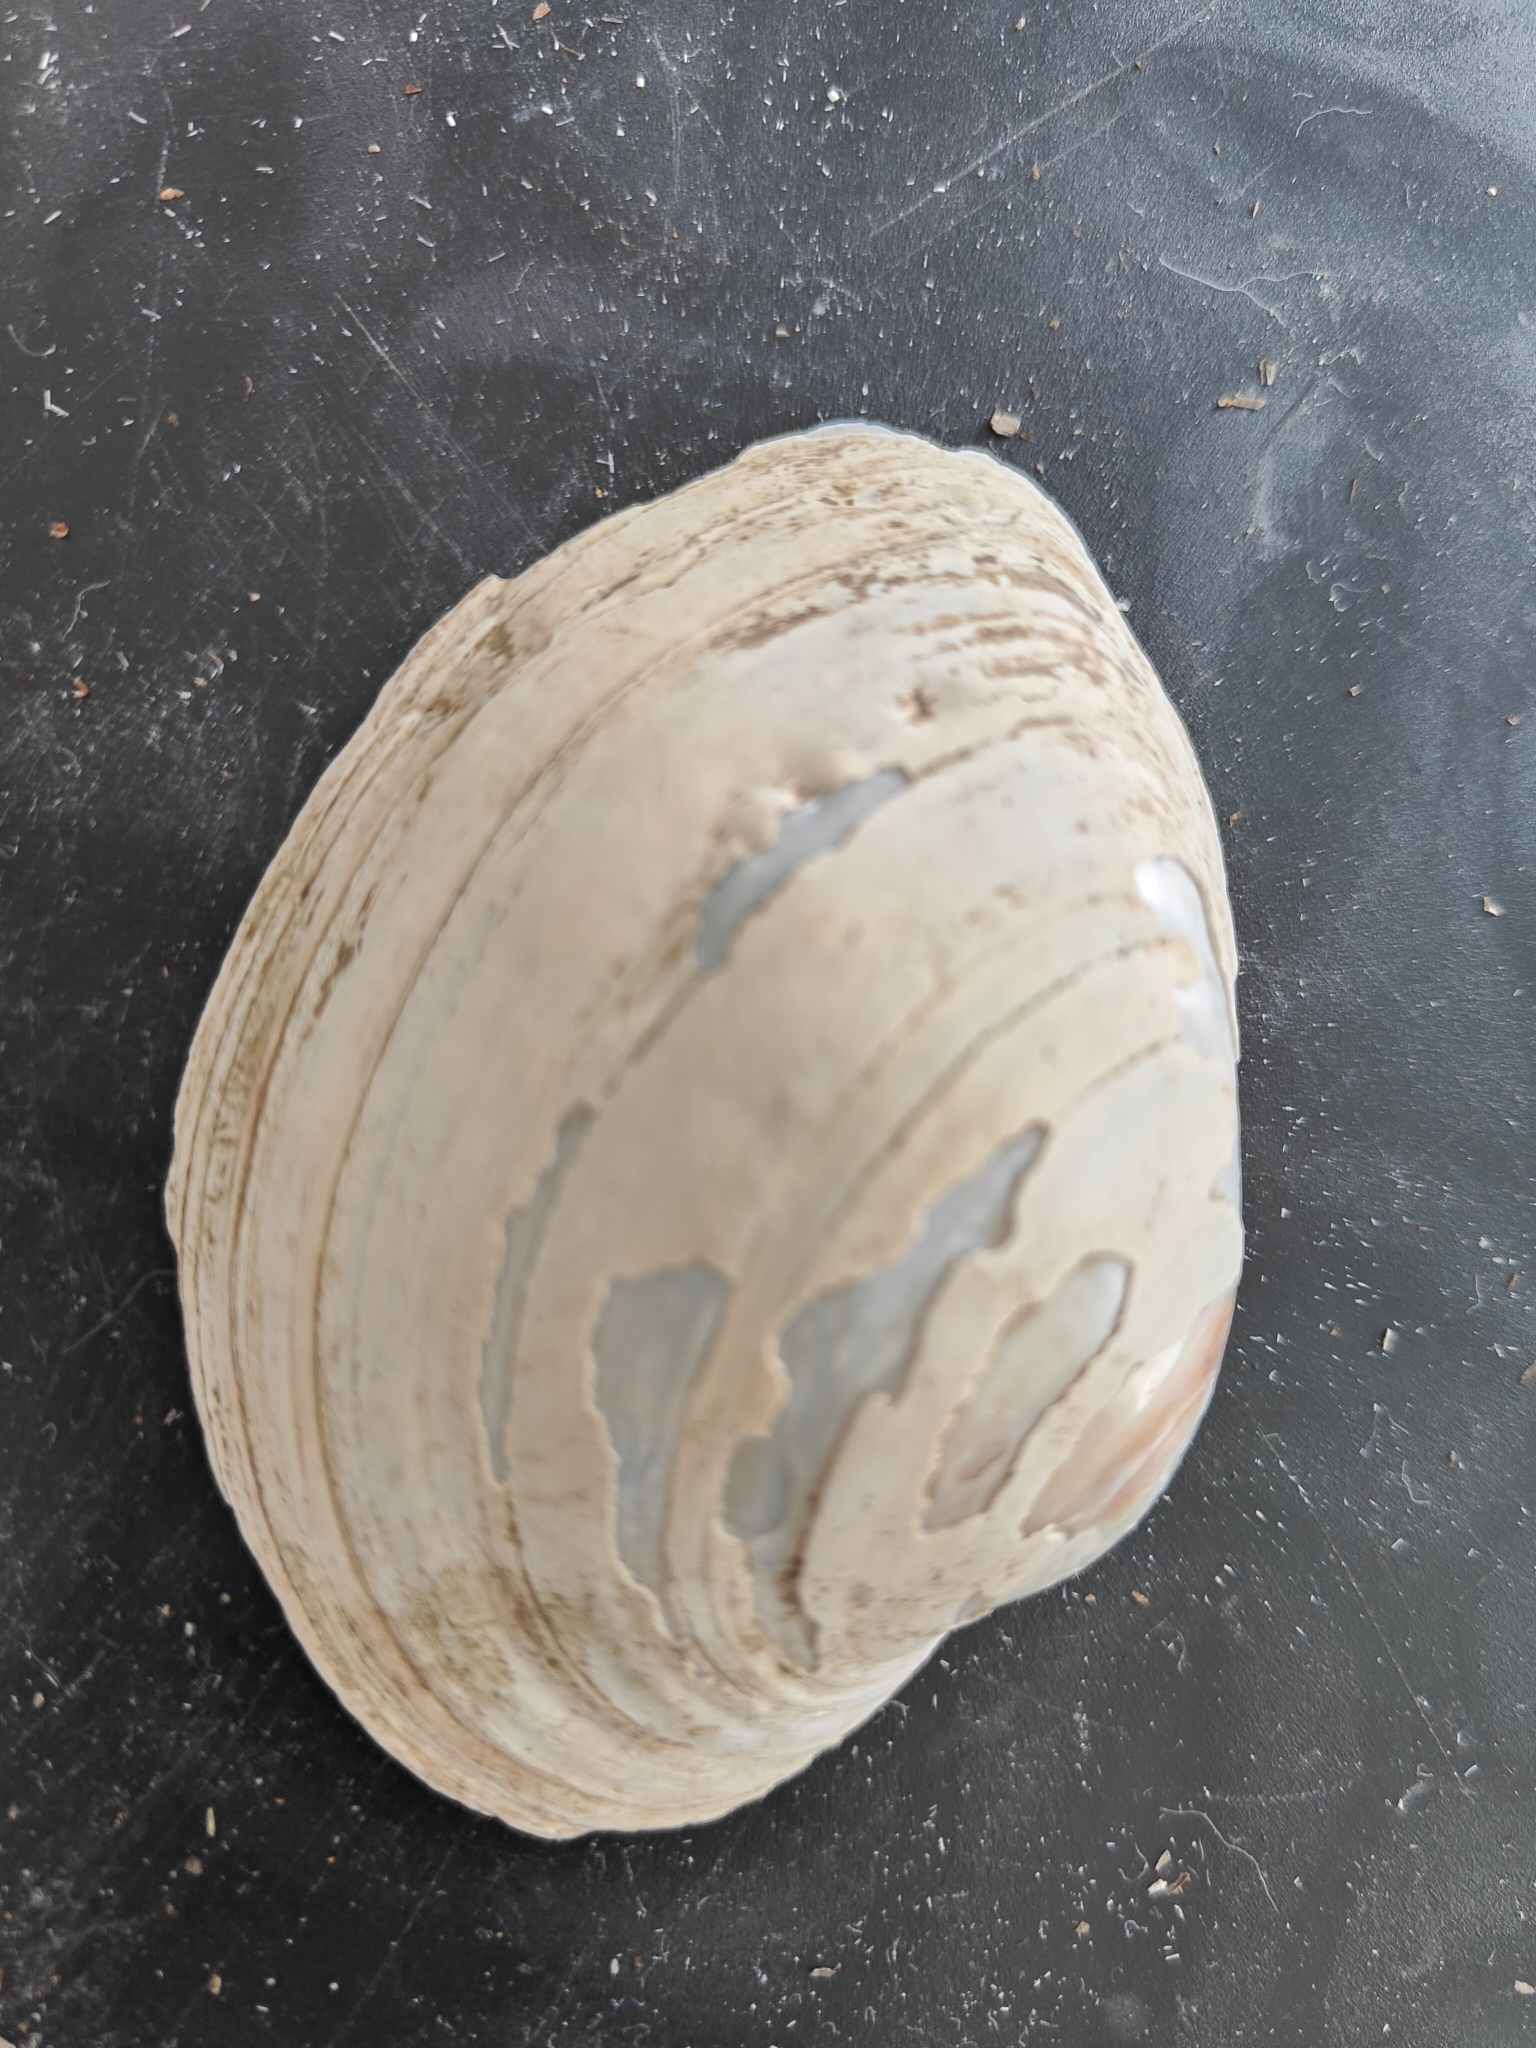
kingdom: Animalia
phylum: Mollusca
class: Bivalvia
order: Unionida
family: Unionidae
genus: Lampsilis
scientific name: Lampsilis cardium
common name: Plain pocketbook
